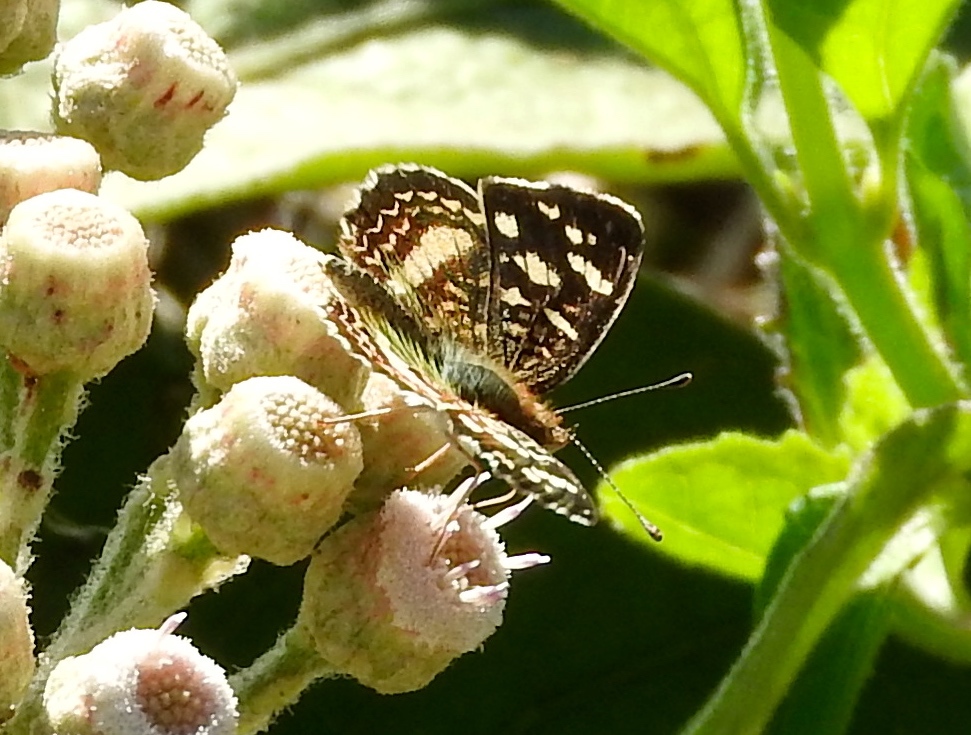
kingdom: Animalia
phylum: Arthropoda
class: Insecta
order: Lepidoptera
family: Nymphalidae
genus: Anthanassa
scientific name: Anthanassa
